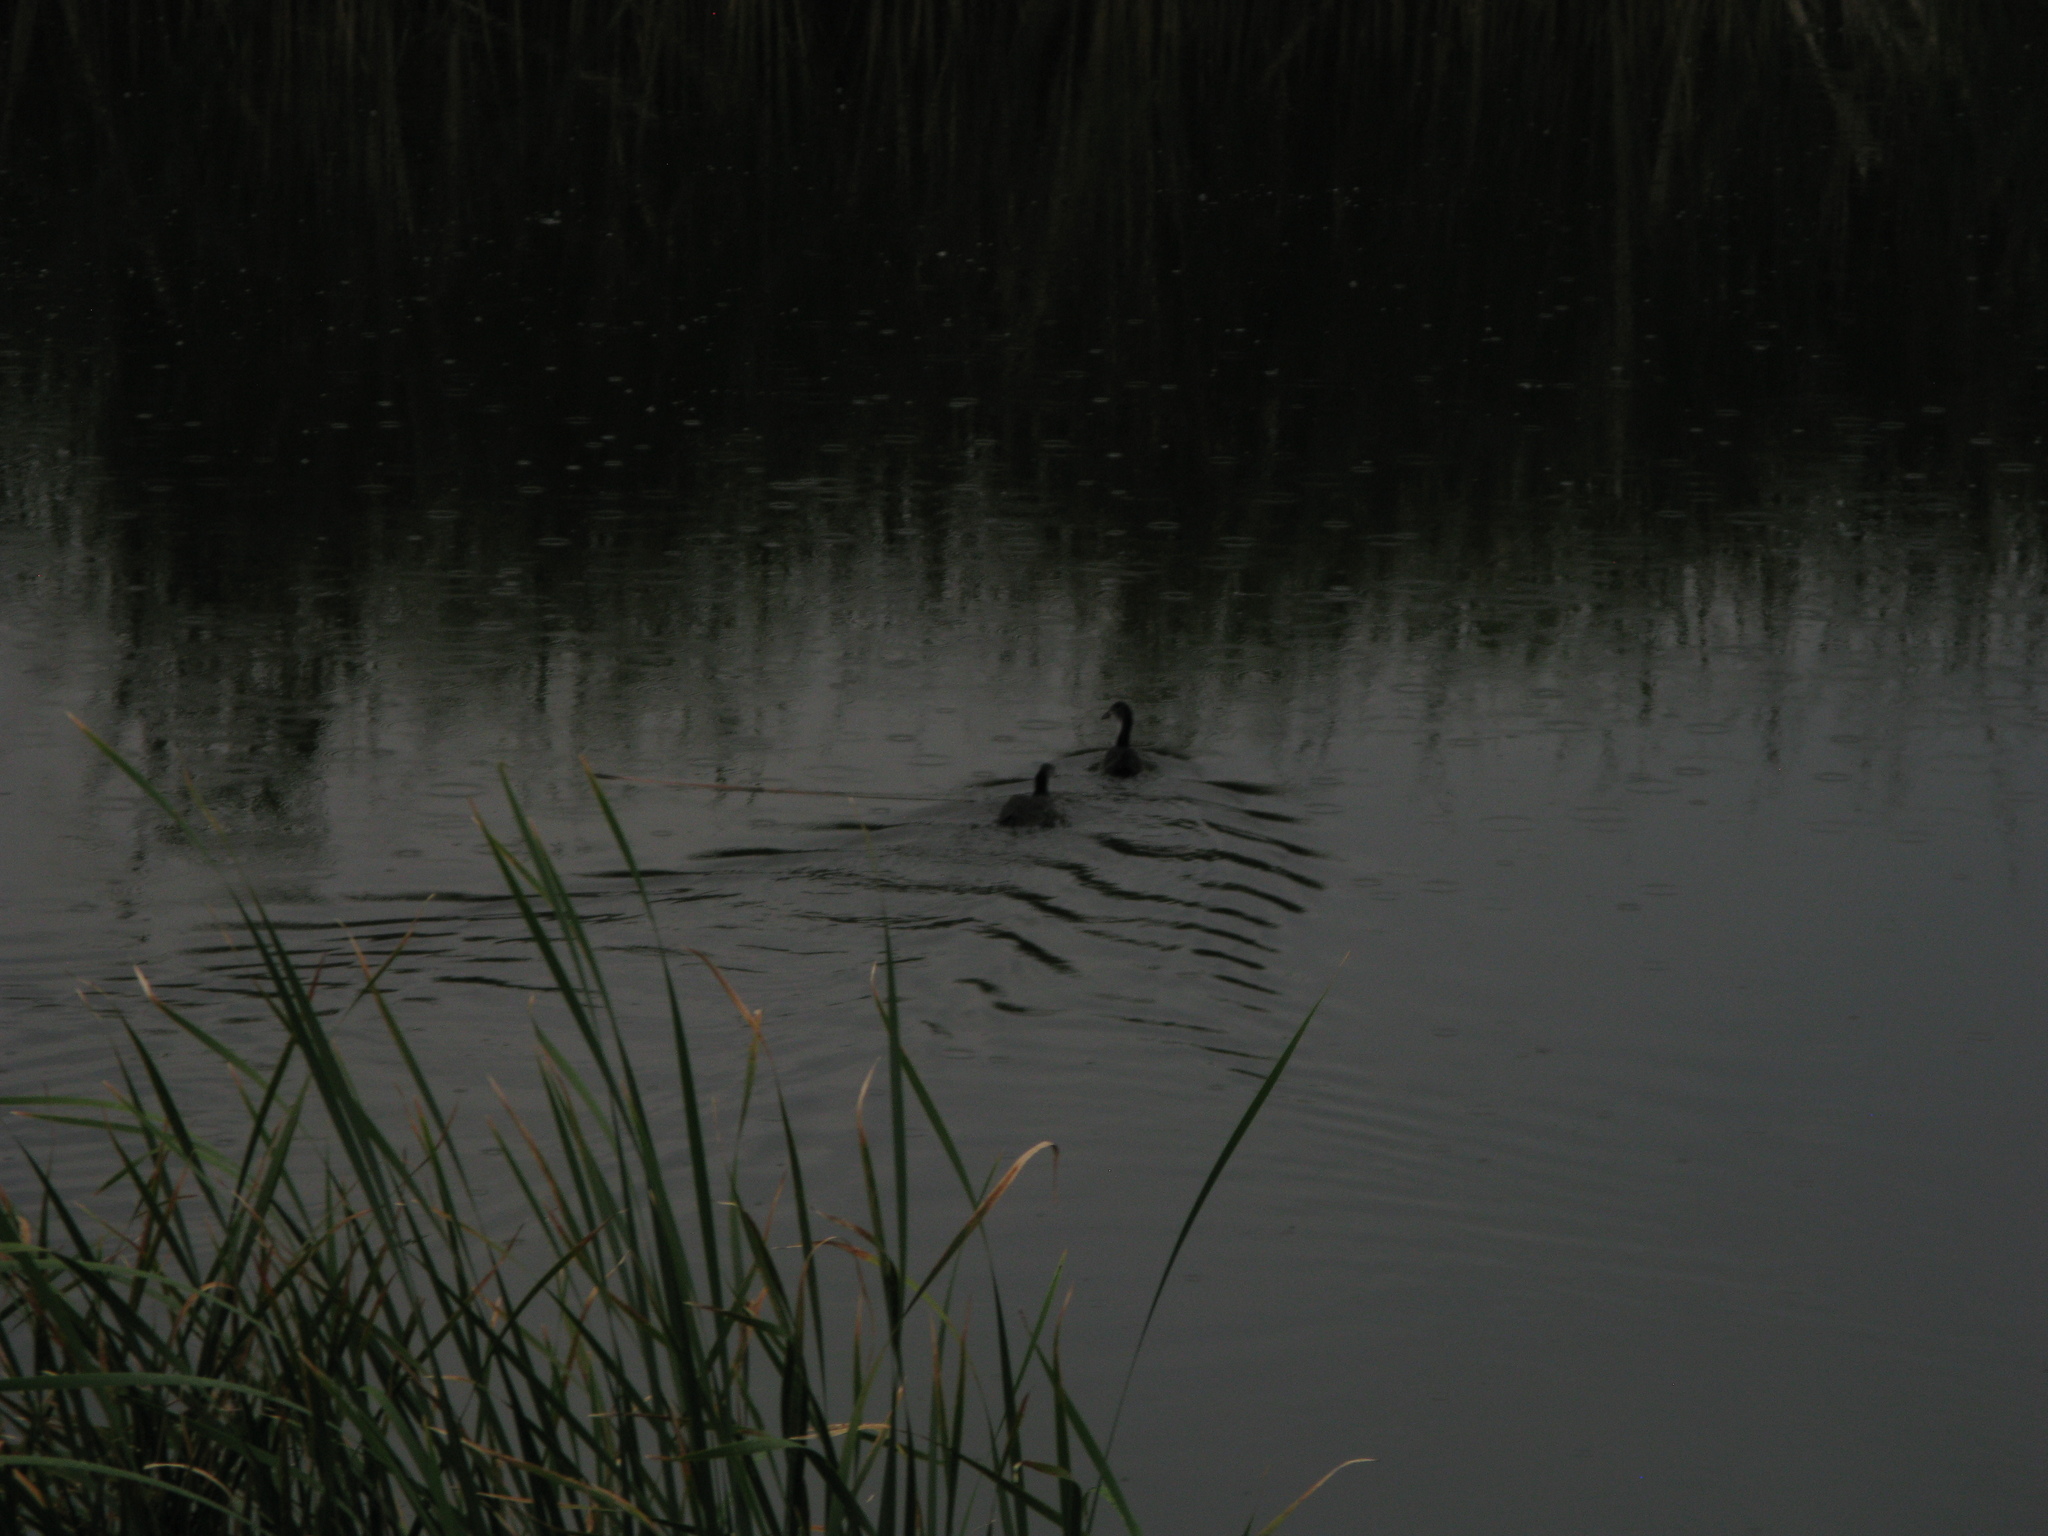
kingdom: Animalia
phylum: Chordata
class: Aves
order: Gruiformes
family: Rallidae
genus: Fulica
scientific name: Fulica atra
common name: Eurasian coot
